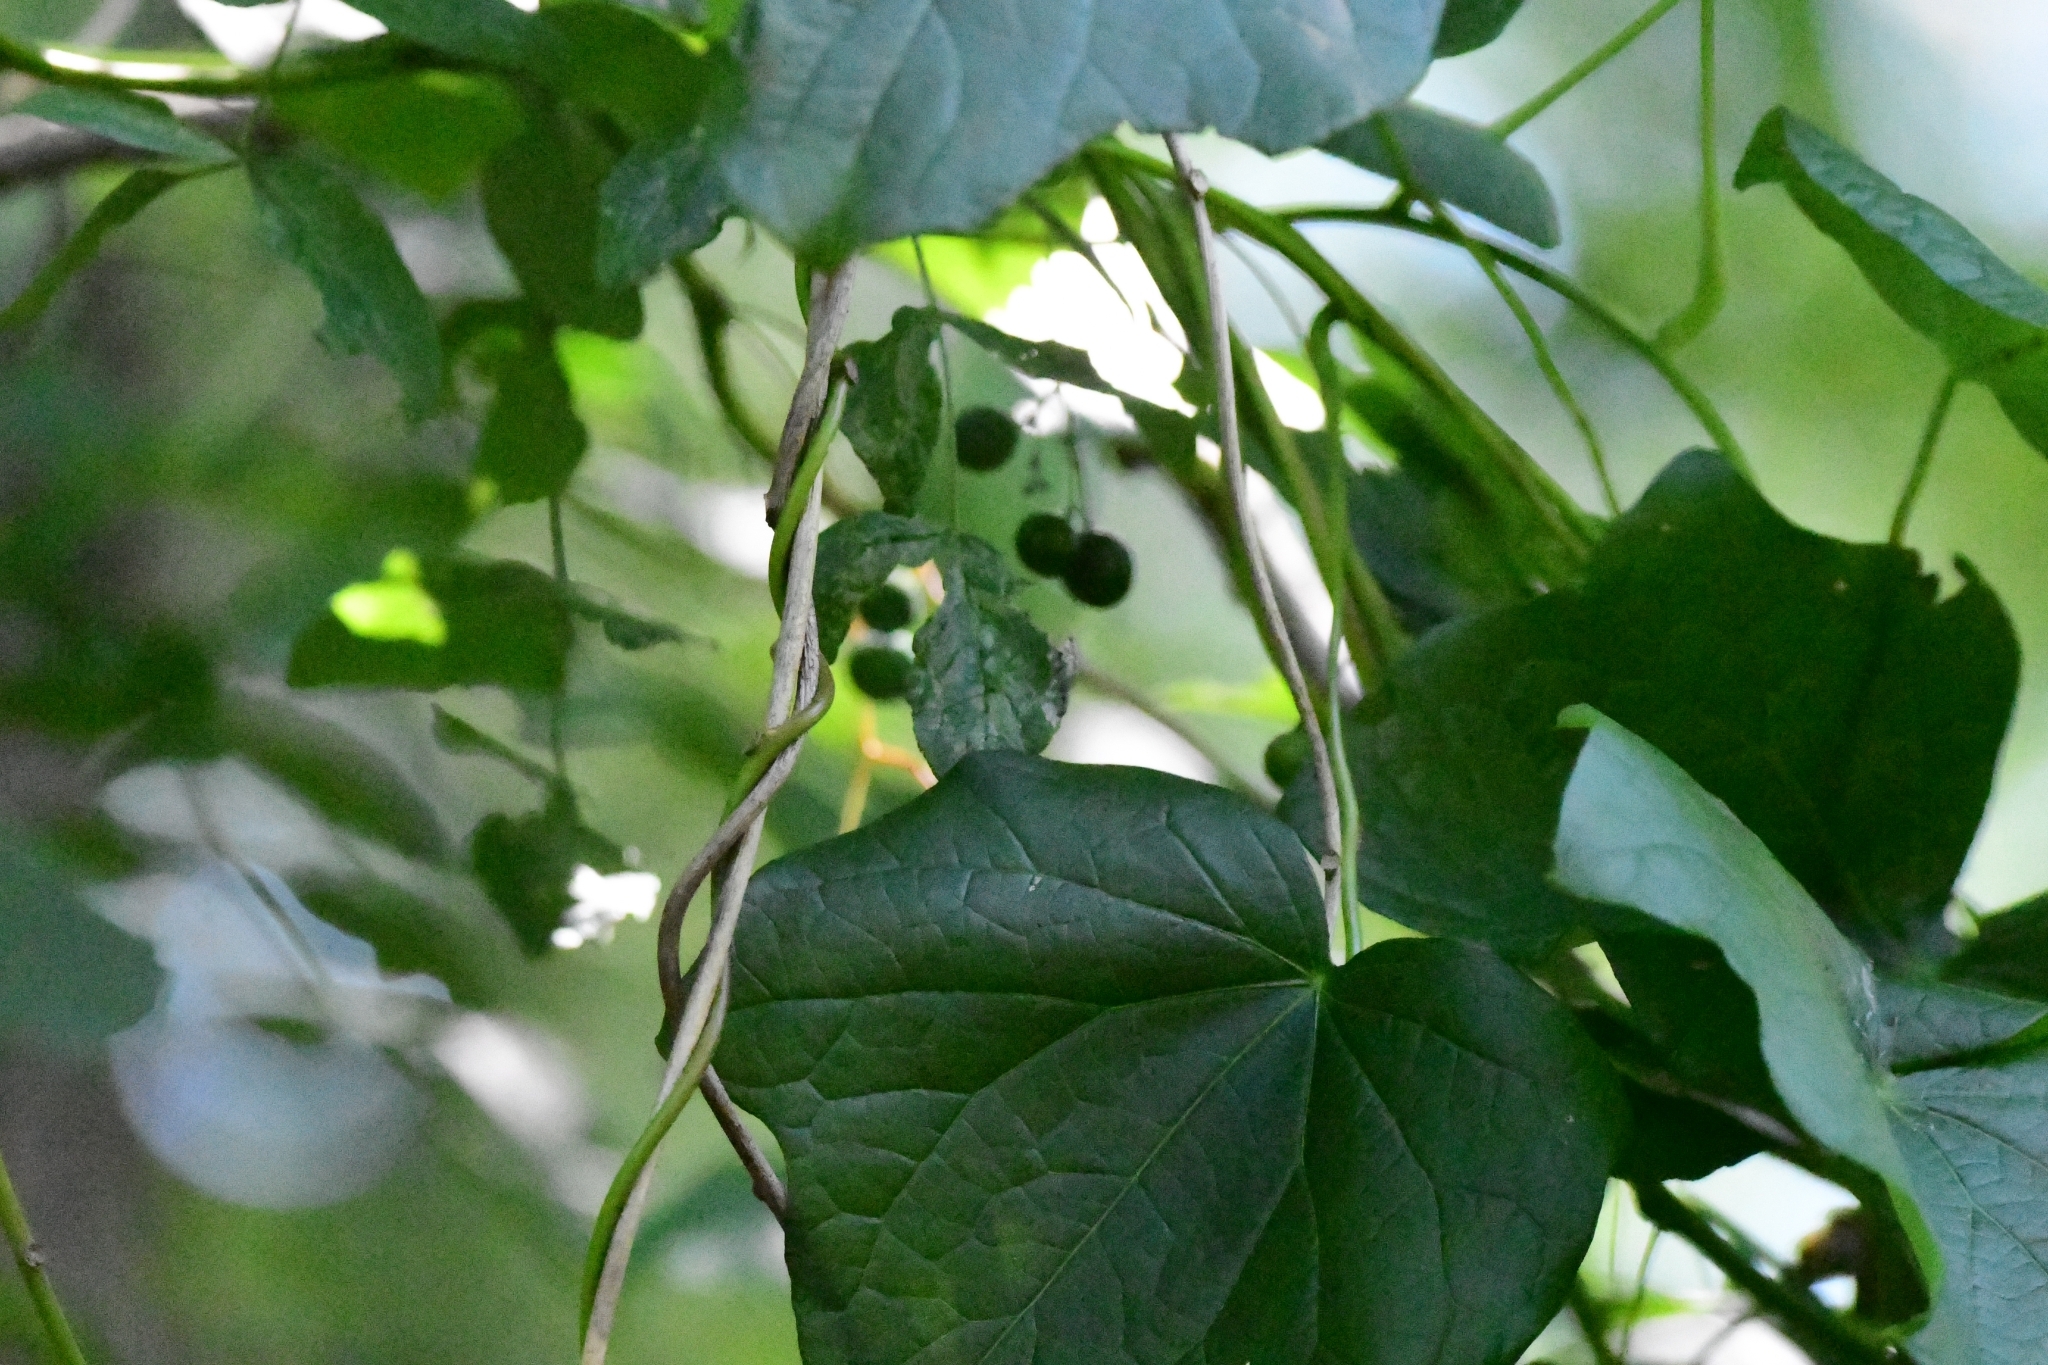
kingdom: Plantae
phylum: Tracheophyta
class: Magnoliopsida
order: Ranunculales
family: Menispermaceae
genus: Menispermum
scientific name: Menispermum canadense
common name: Moonseed
